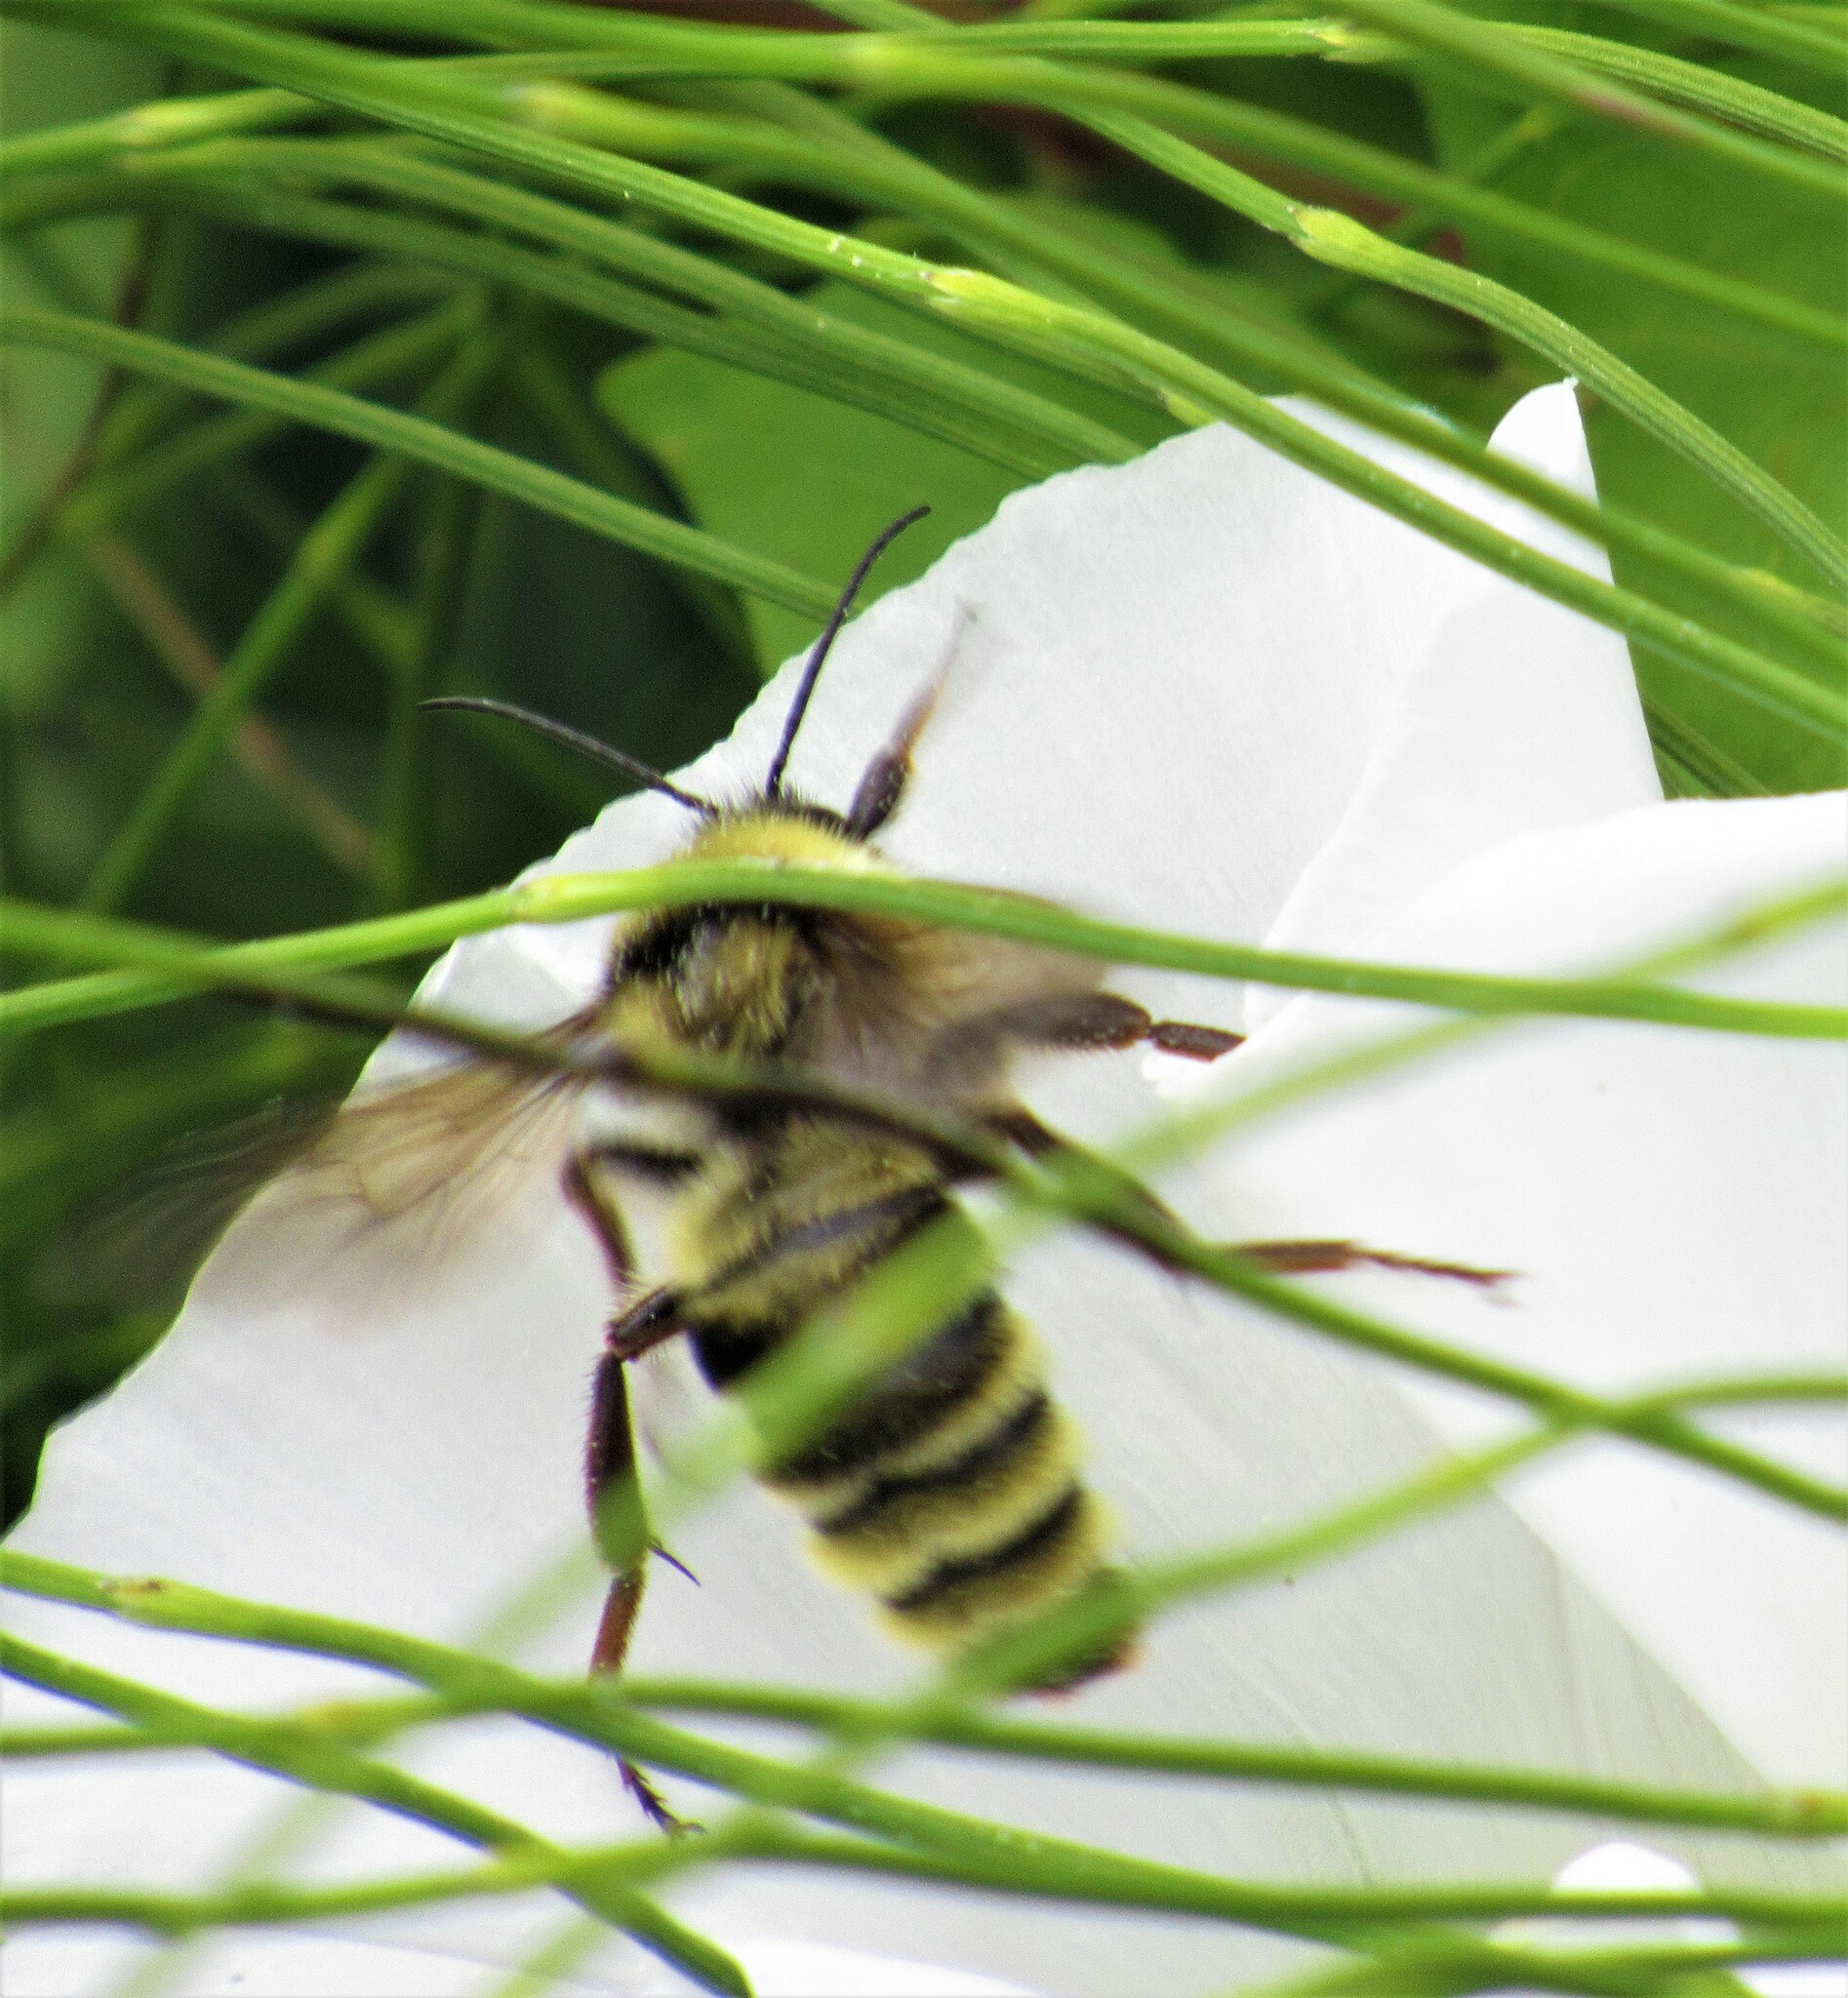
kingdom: Animalia
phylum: Arthropoda
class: Insecta
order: Hymenoptera
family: Apidae
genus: Bombus
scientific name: Bombus californicus
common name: California bumble bee
